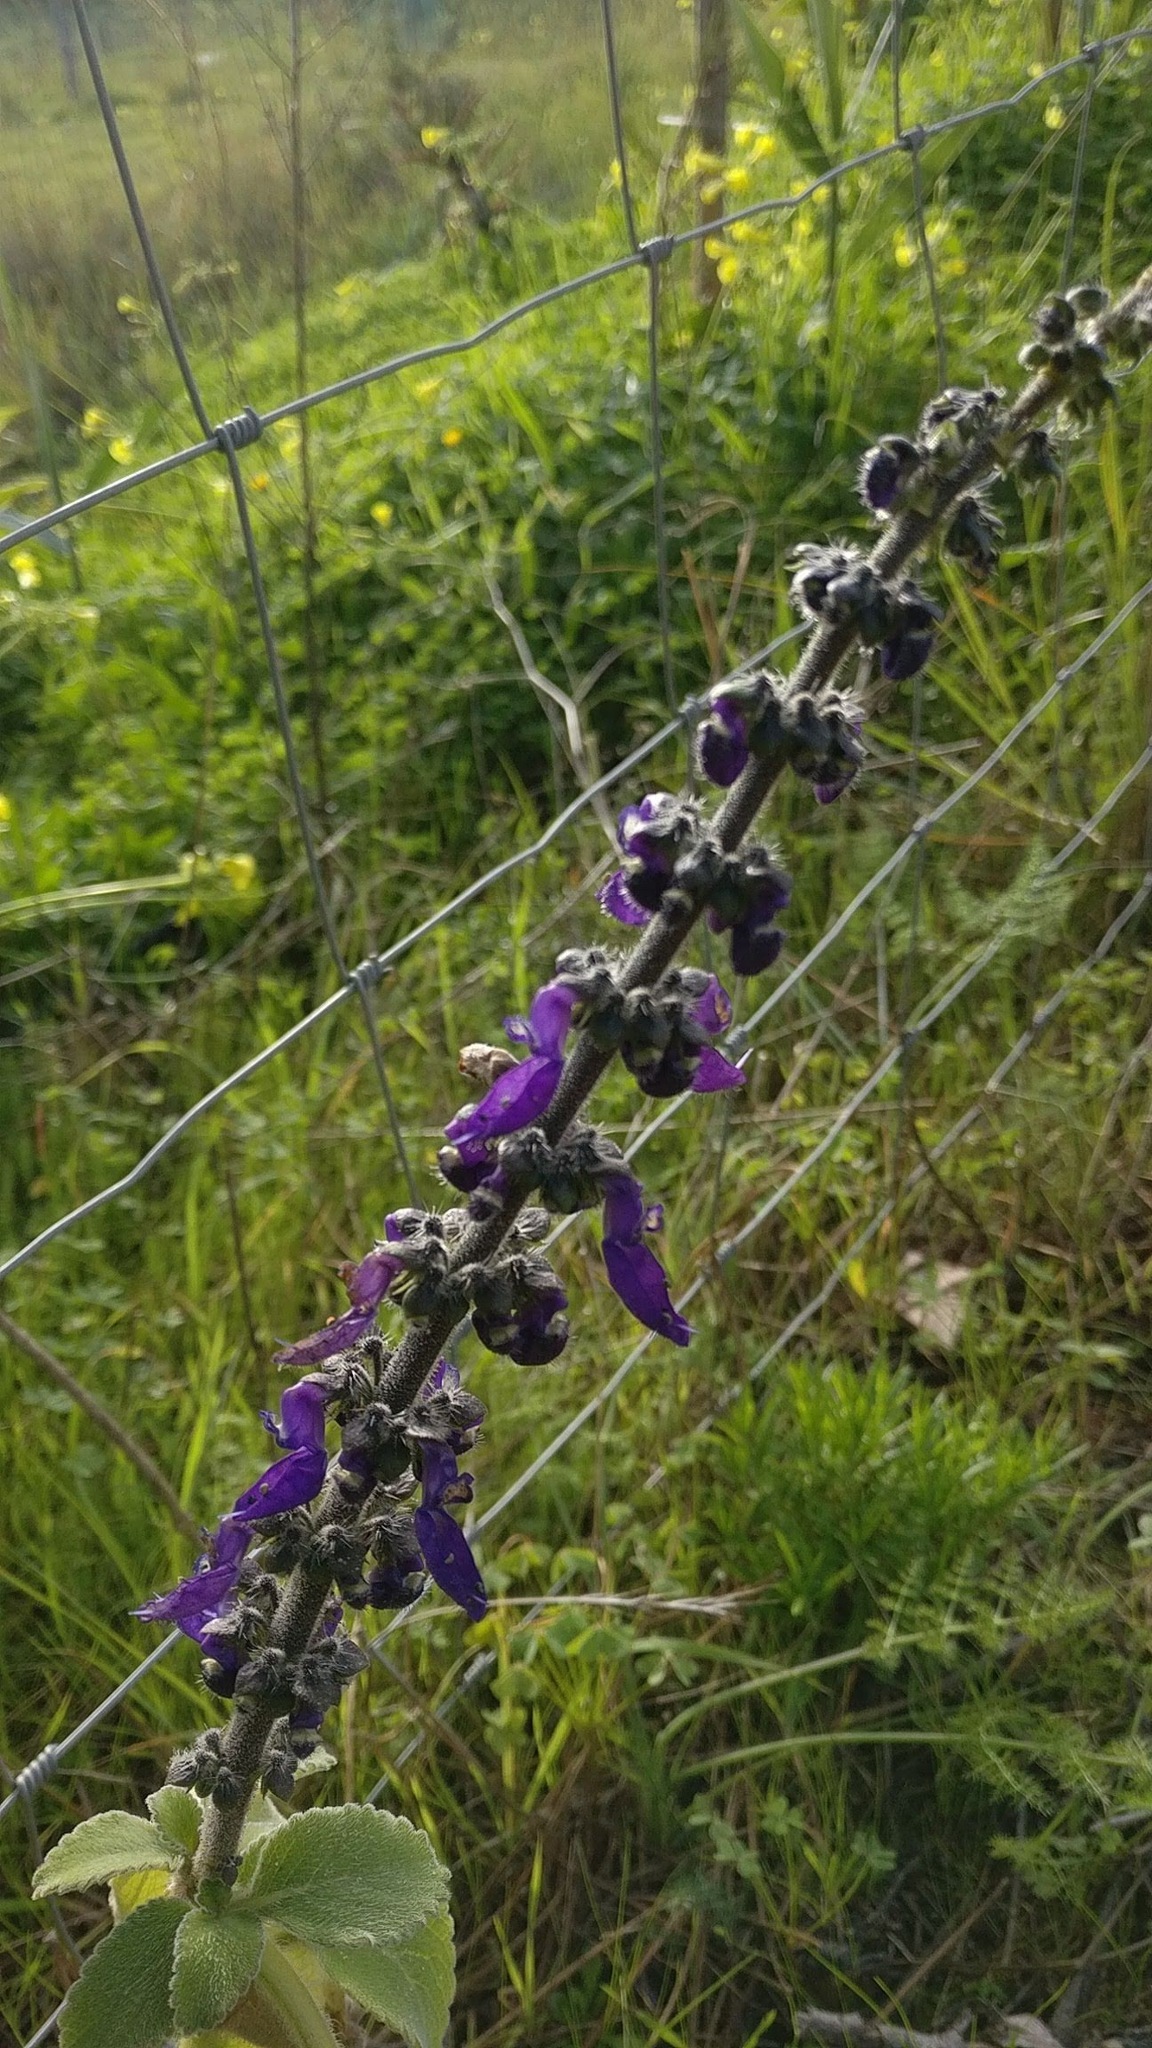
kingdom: Plantae
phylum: Tracheophyta
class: Magnoliopsida
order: Lamiales
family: Lamiaceae
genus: Coleus
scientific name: Coleus barbatus
